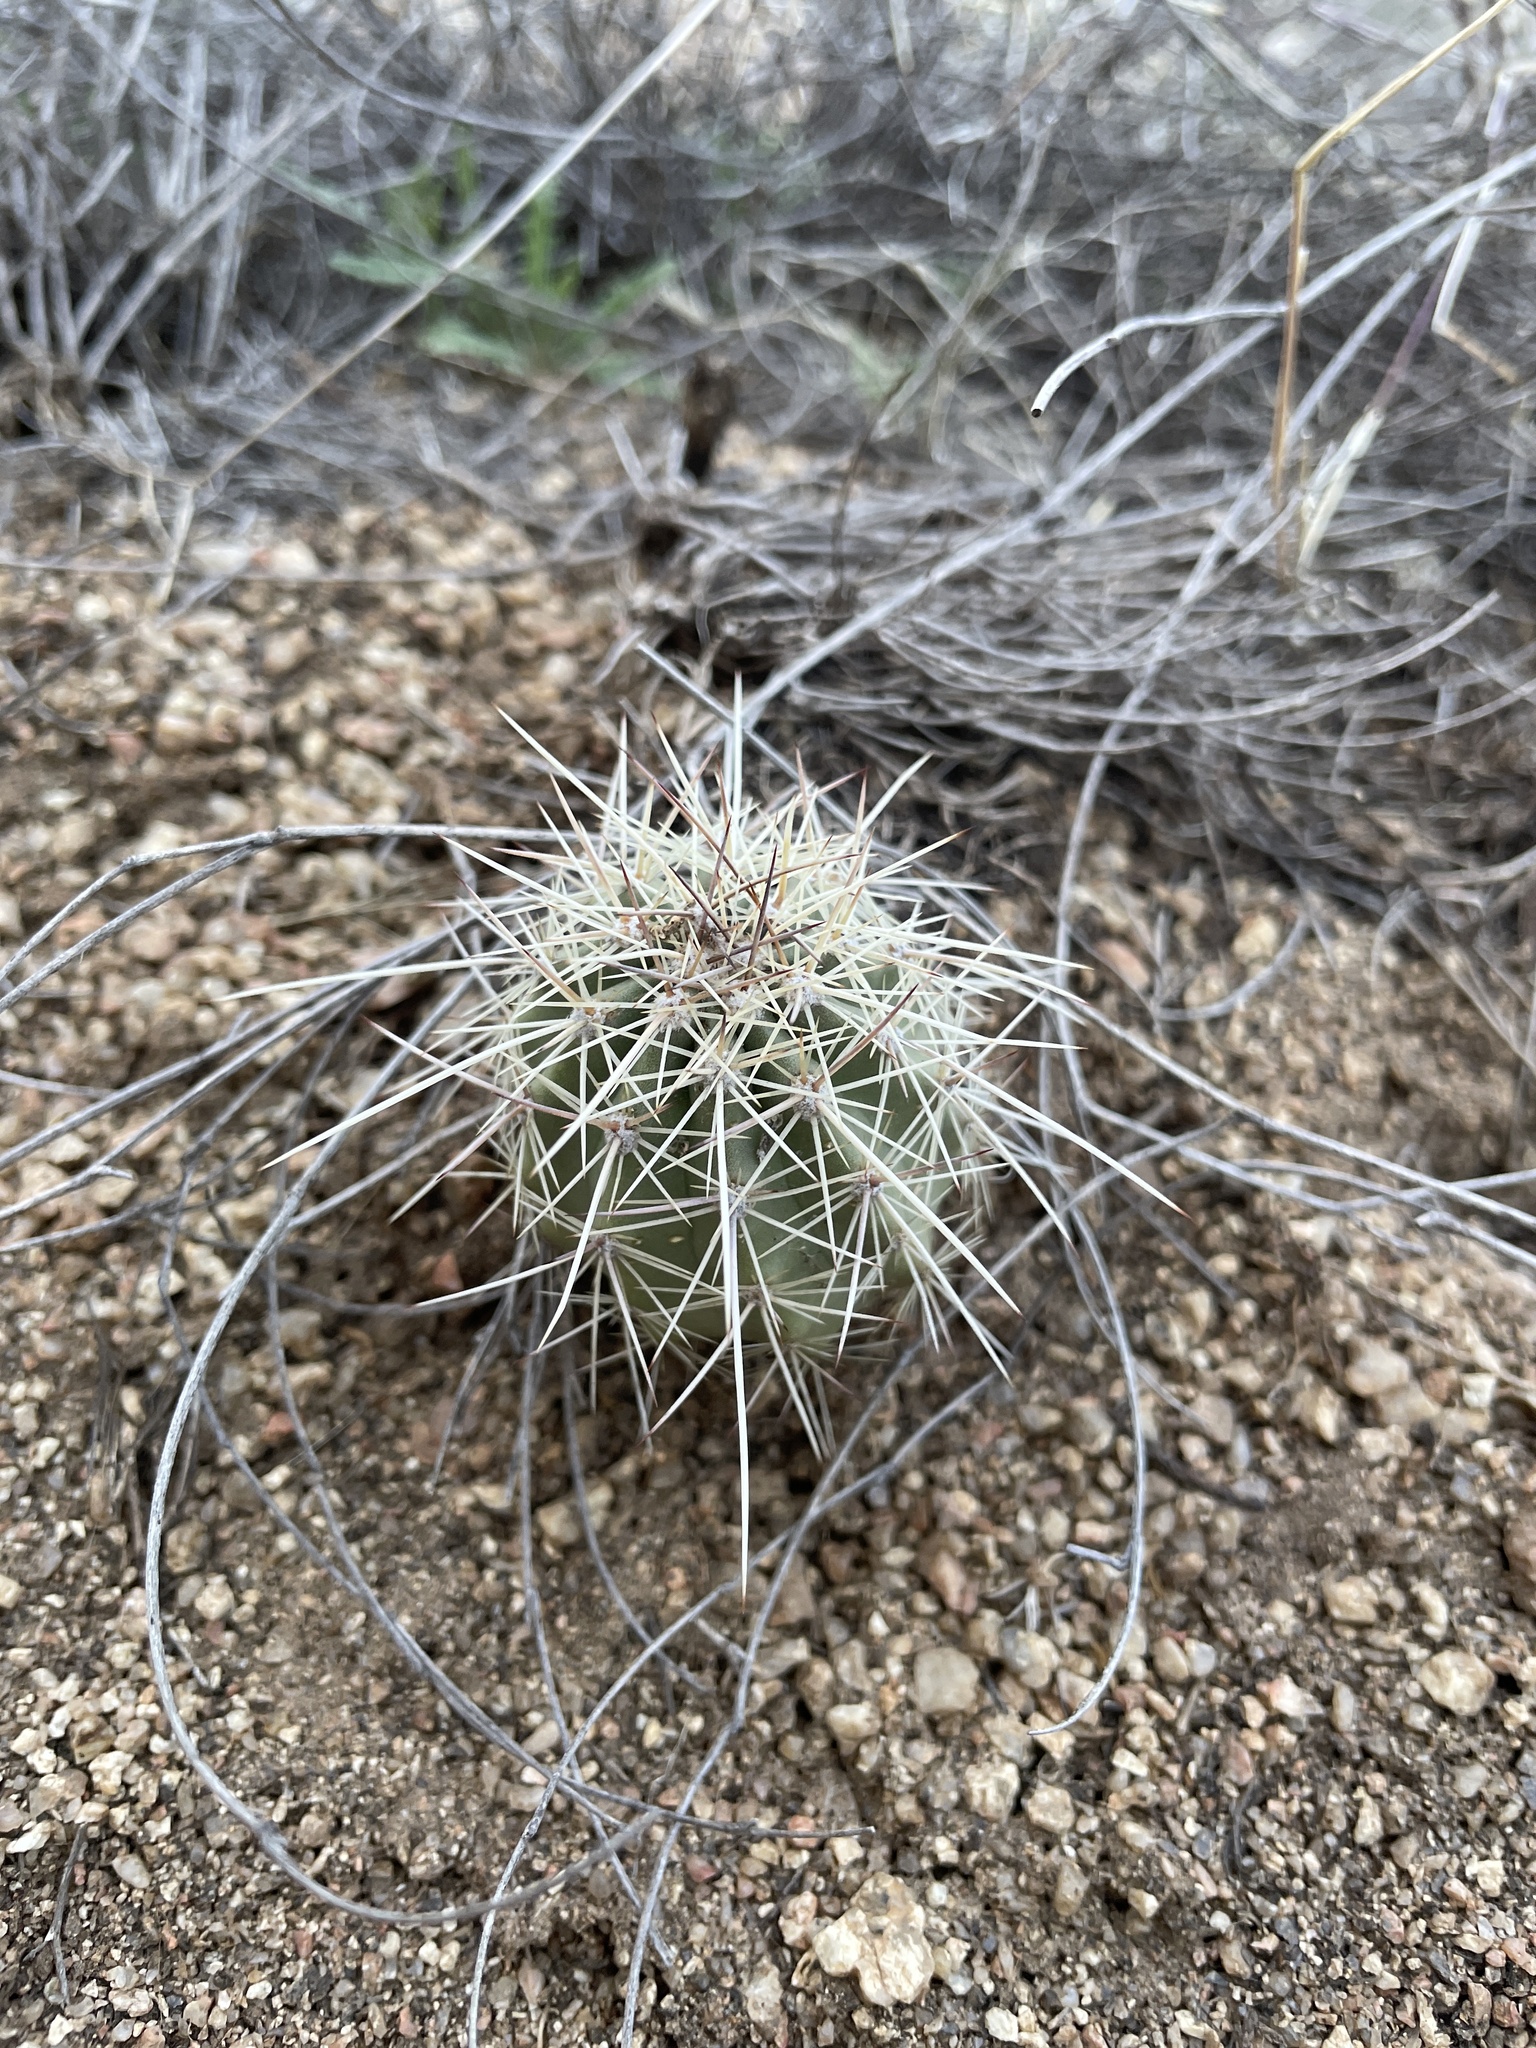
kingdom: Plantae
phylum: Tracheophyta
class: Magnoliopsida
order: Caryophyllales
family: Cactaceae
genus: Echinocereus
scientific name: Echinocereus coccineus
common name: Scarlet hedgehog cactus
